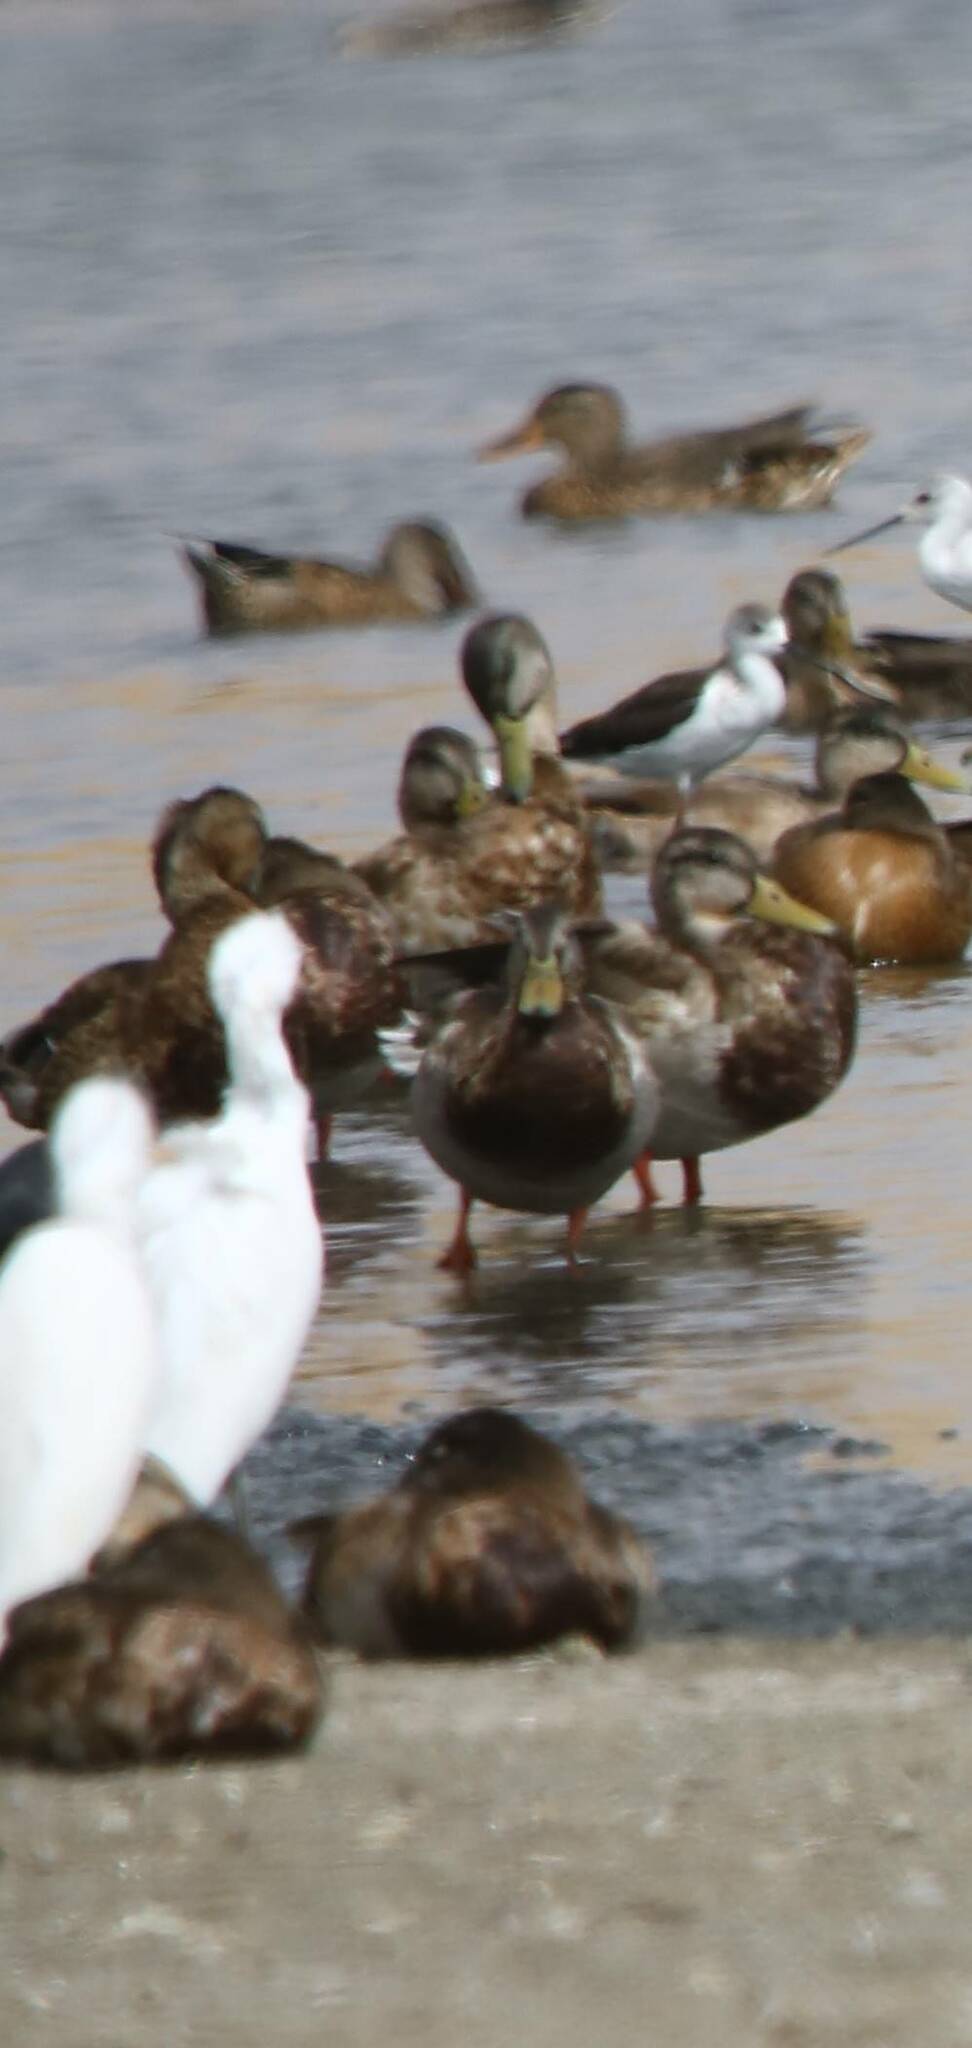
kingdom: Animalia
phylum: Chordata
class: Aves
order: Anseriformes
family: Anatidae
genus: Anas
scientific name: Anas platyrhynchos
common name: Mallard
